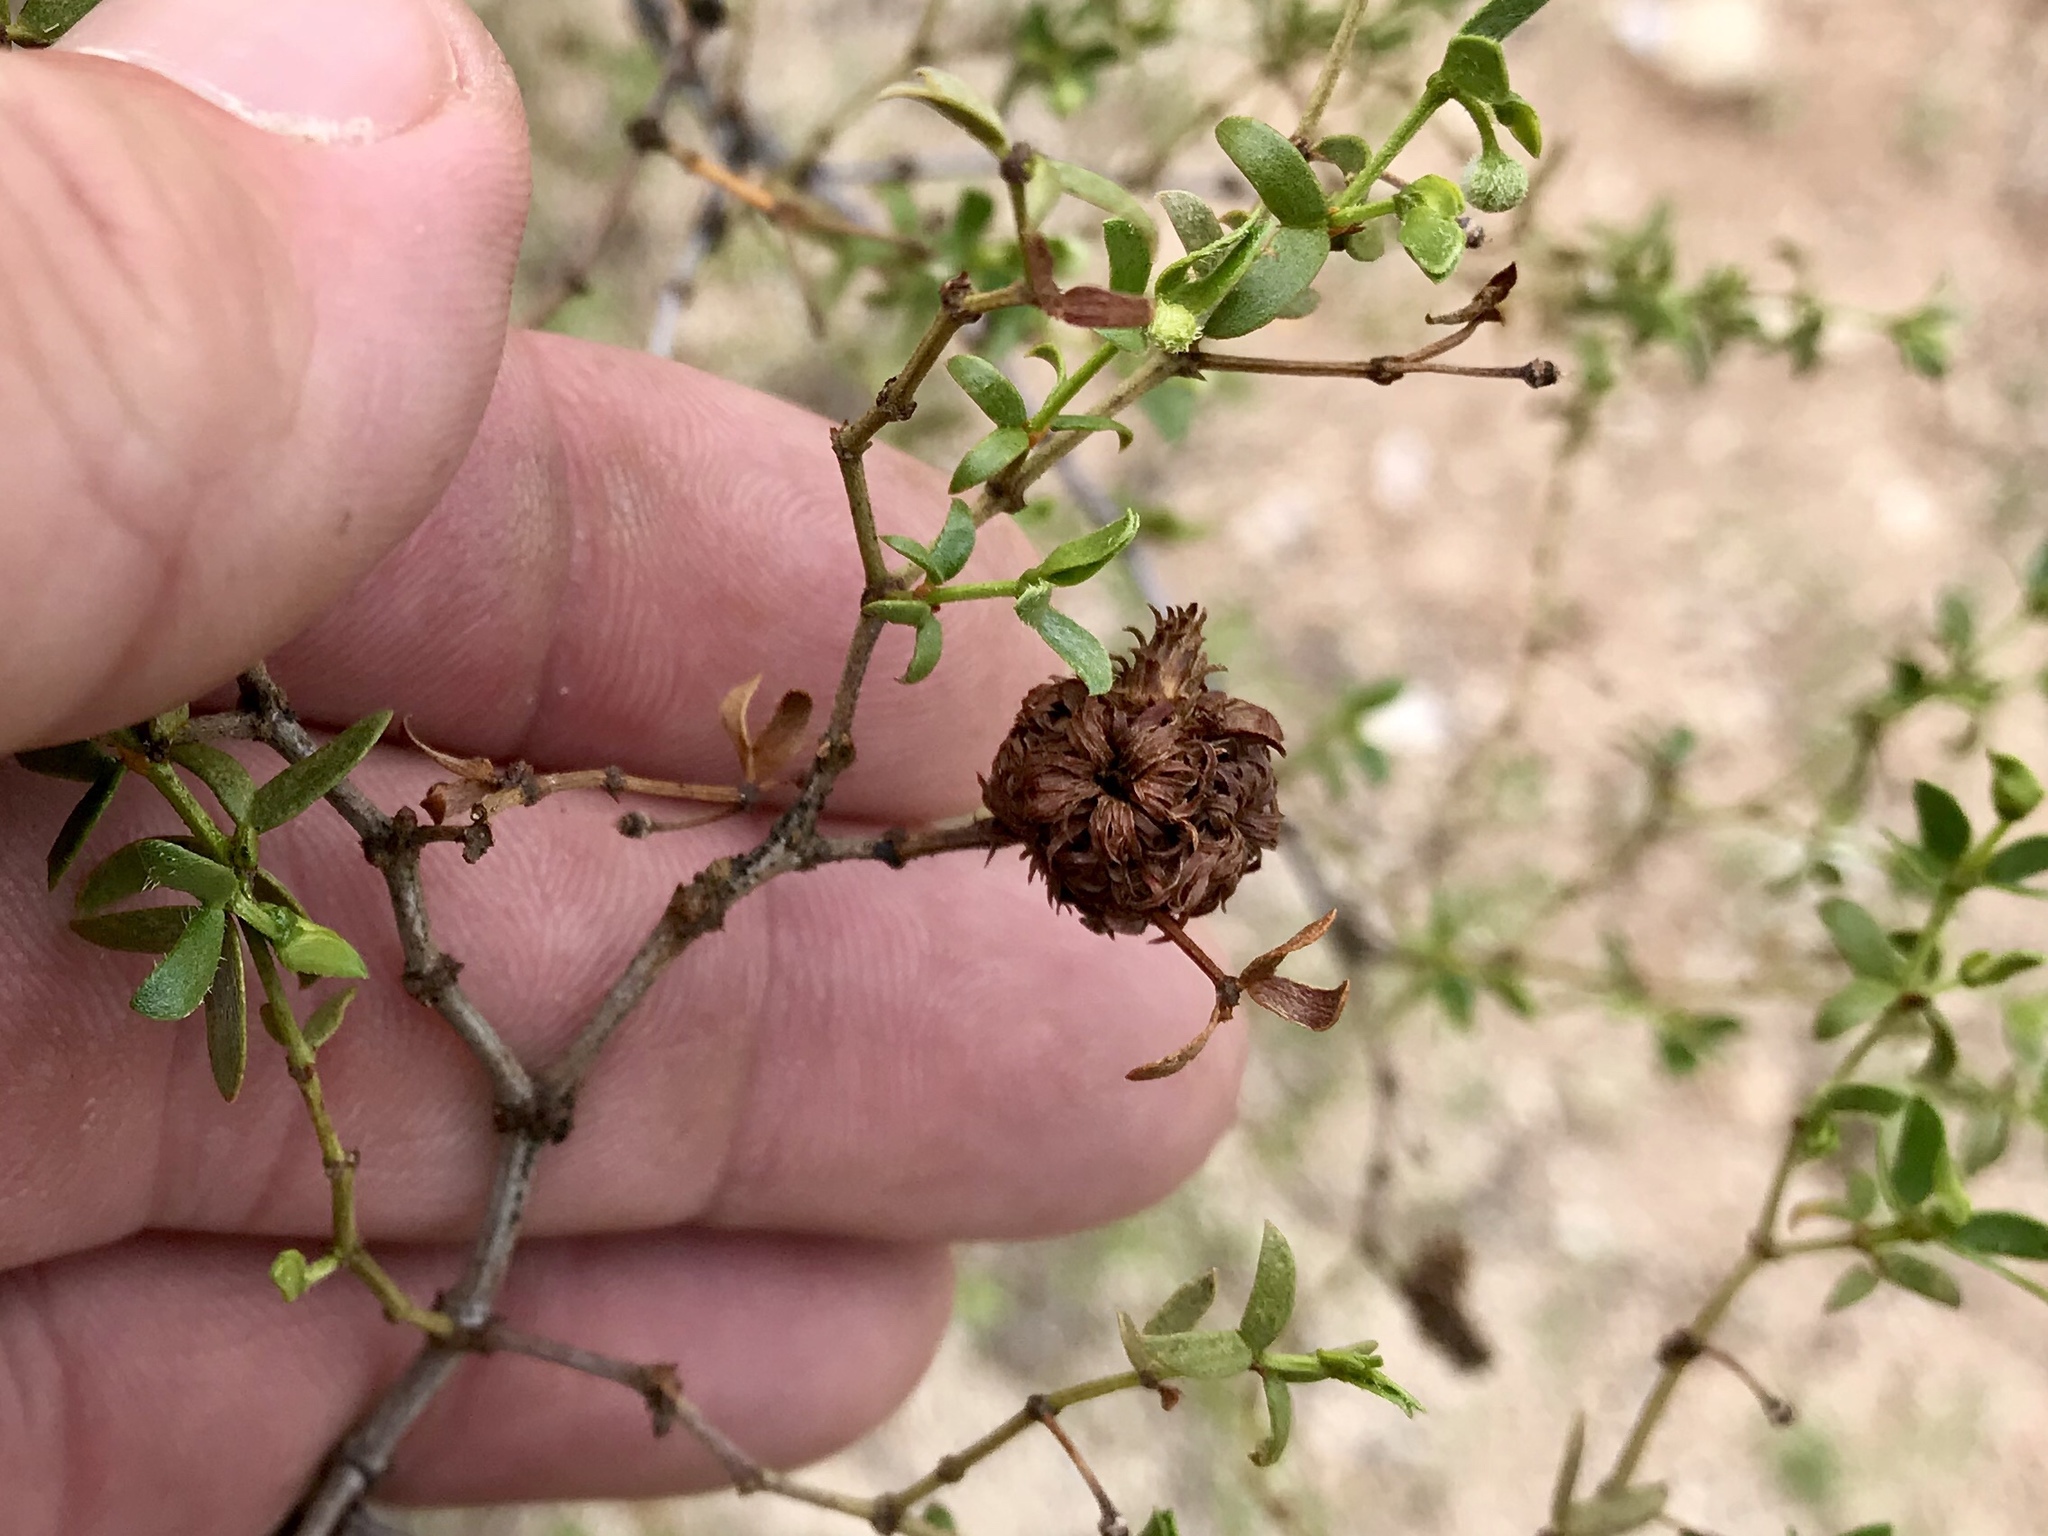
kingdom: Animalia
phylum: Arthropoda
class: Insecta
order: Diptera
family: Cecidomyiidae
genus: Asphondylia
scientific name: Asphondylia auripila
